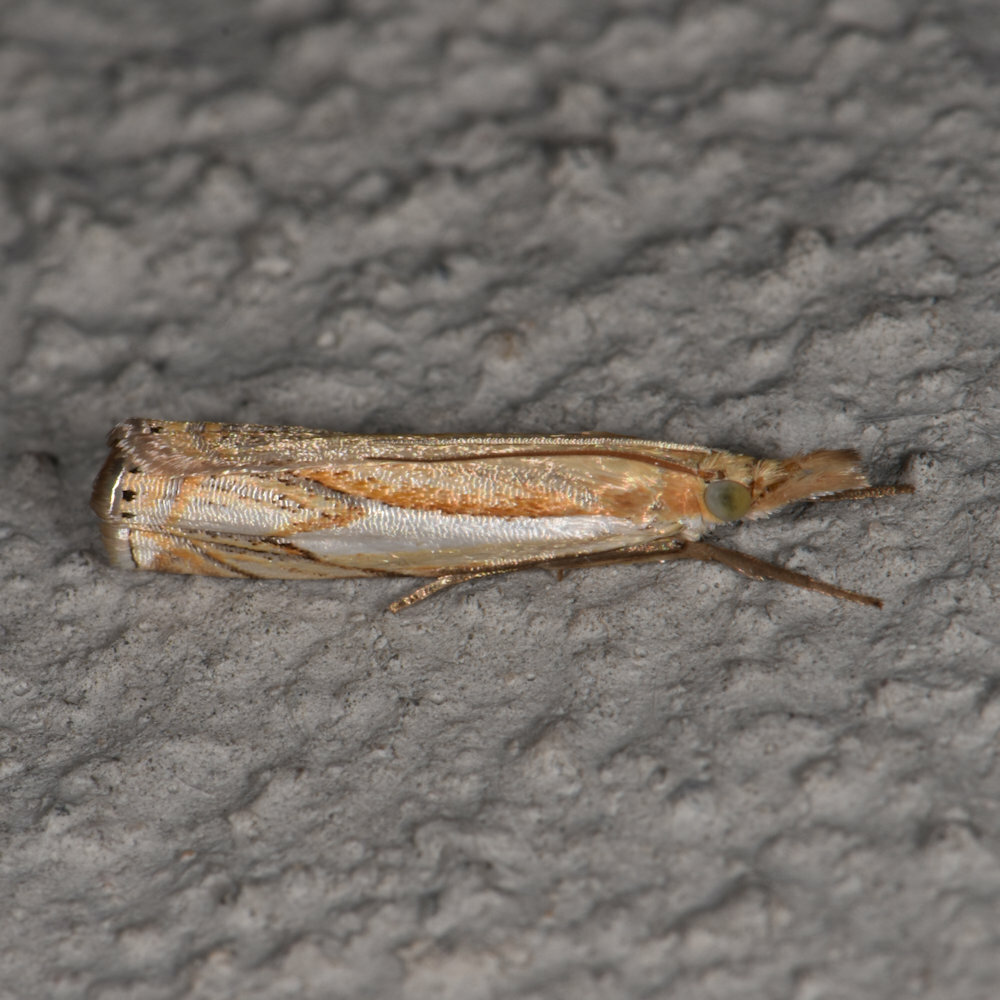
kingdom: Animalia
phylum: Arthropoda
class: Insecta
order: Lepidoptera
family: Crambidae
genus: Crambus
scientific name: Crambus agitatellus
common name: Double-banded grass-veneer
